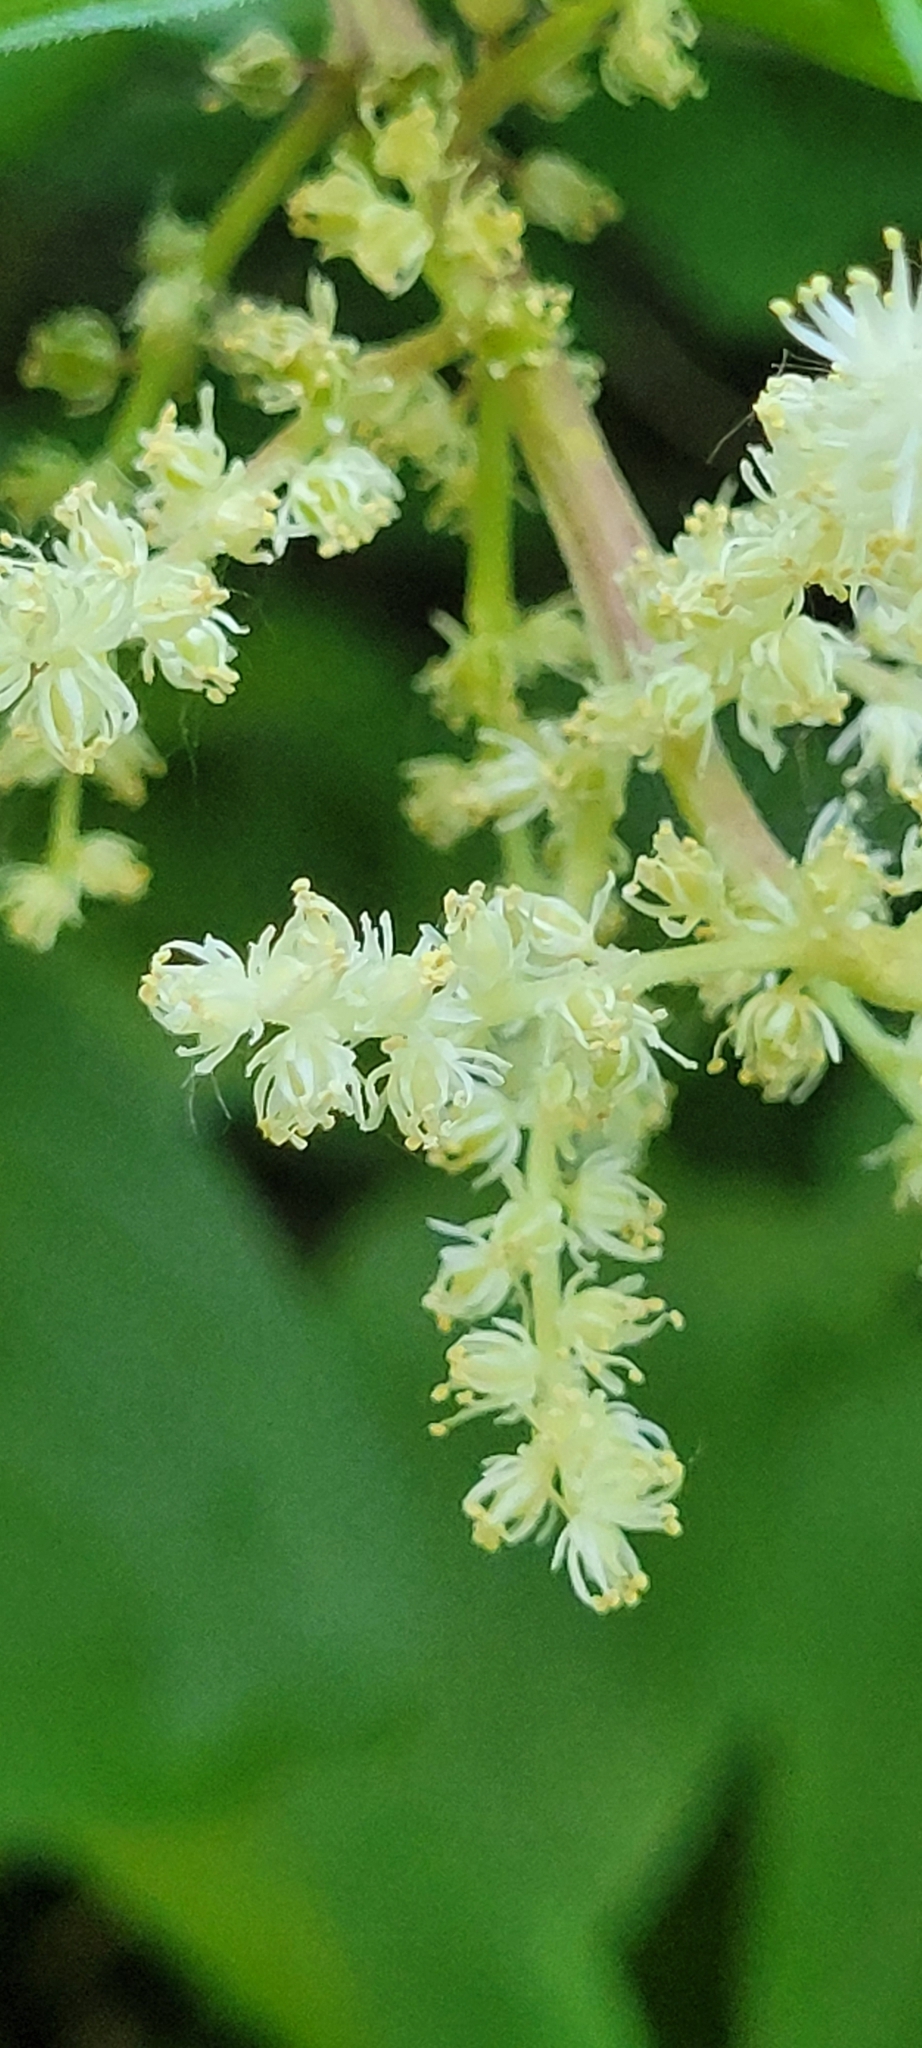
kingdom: Plantae
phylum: Tracheophyta
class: Liliopsida
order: Asparagales
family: Asparagaceae
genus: Maianthemum
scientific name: Maianthemum racemosum
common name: False spikenard
